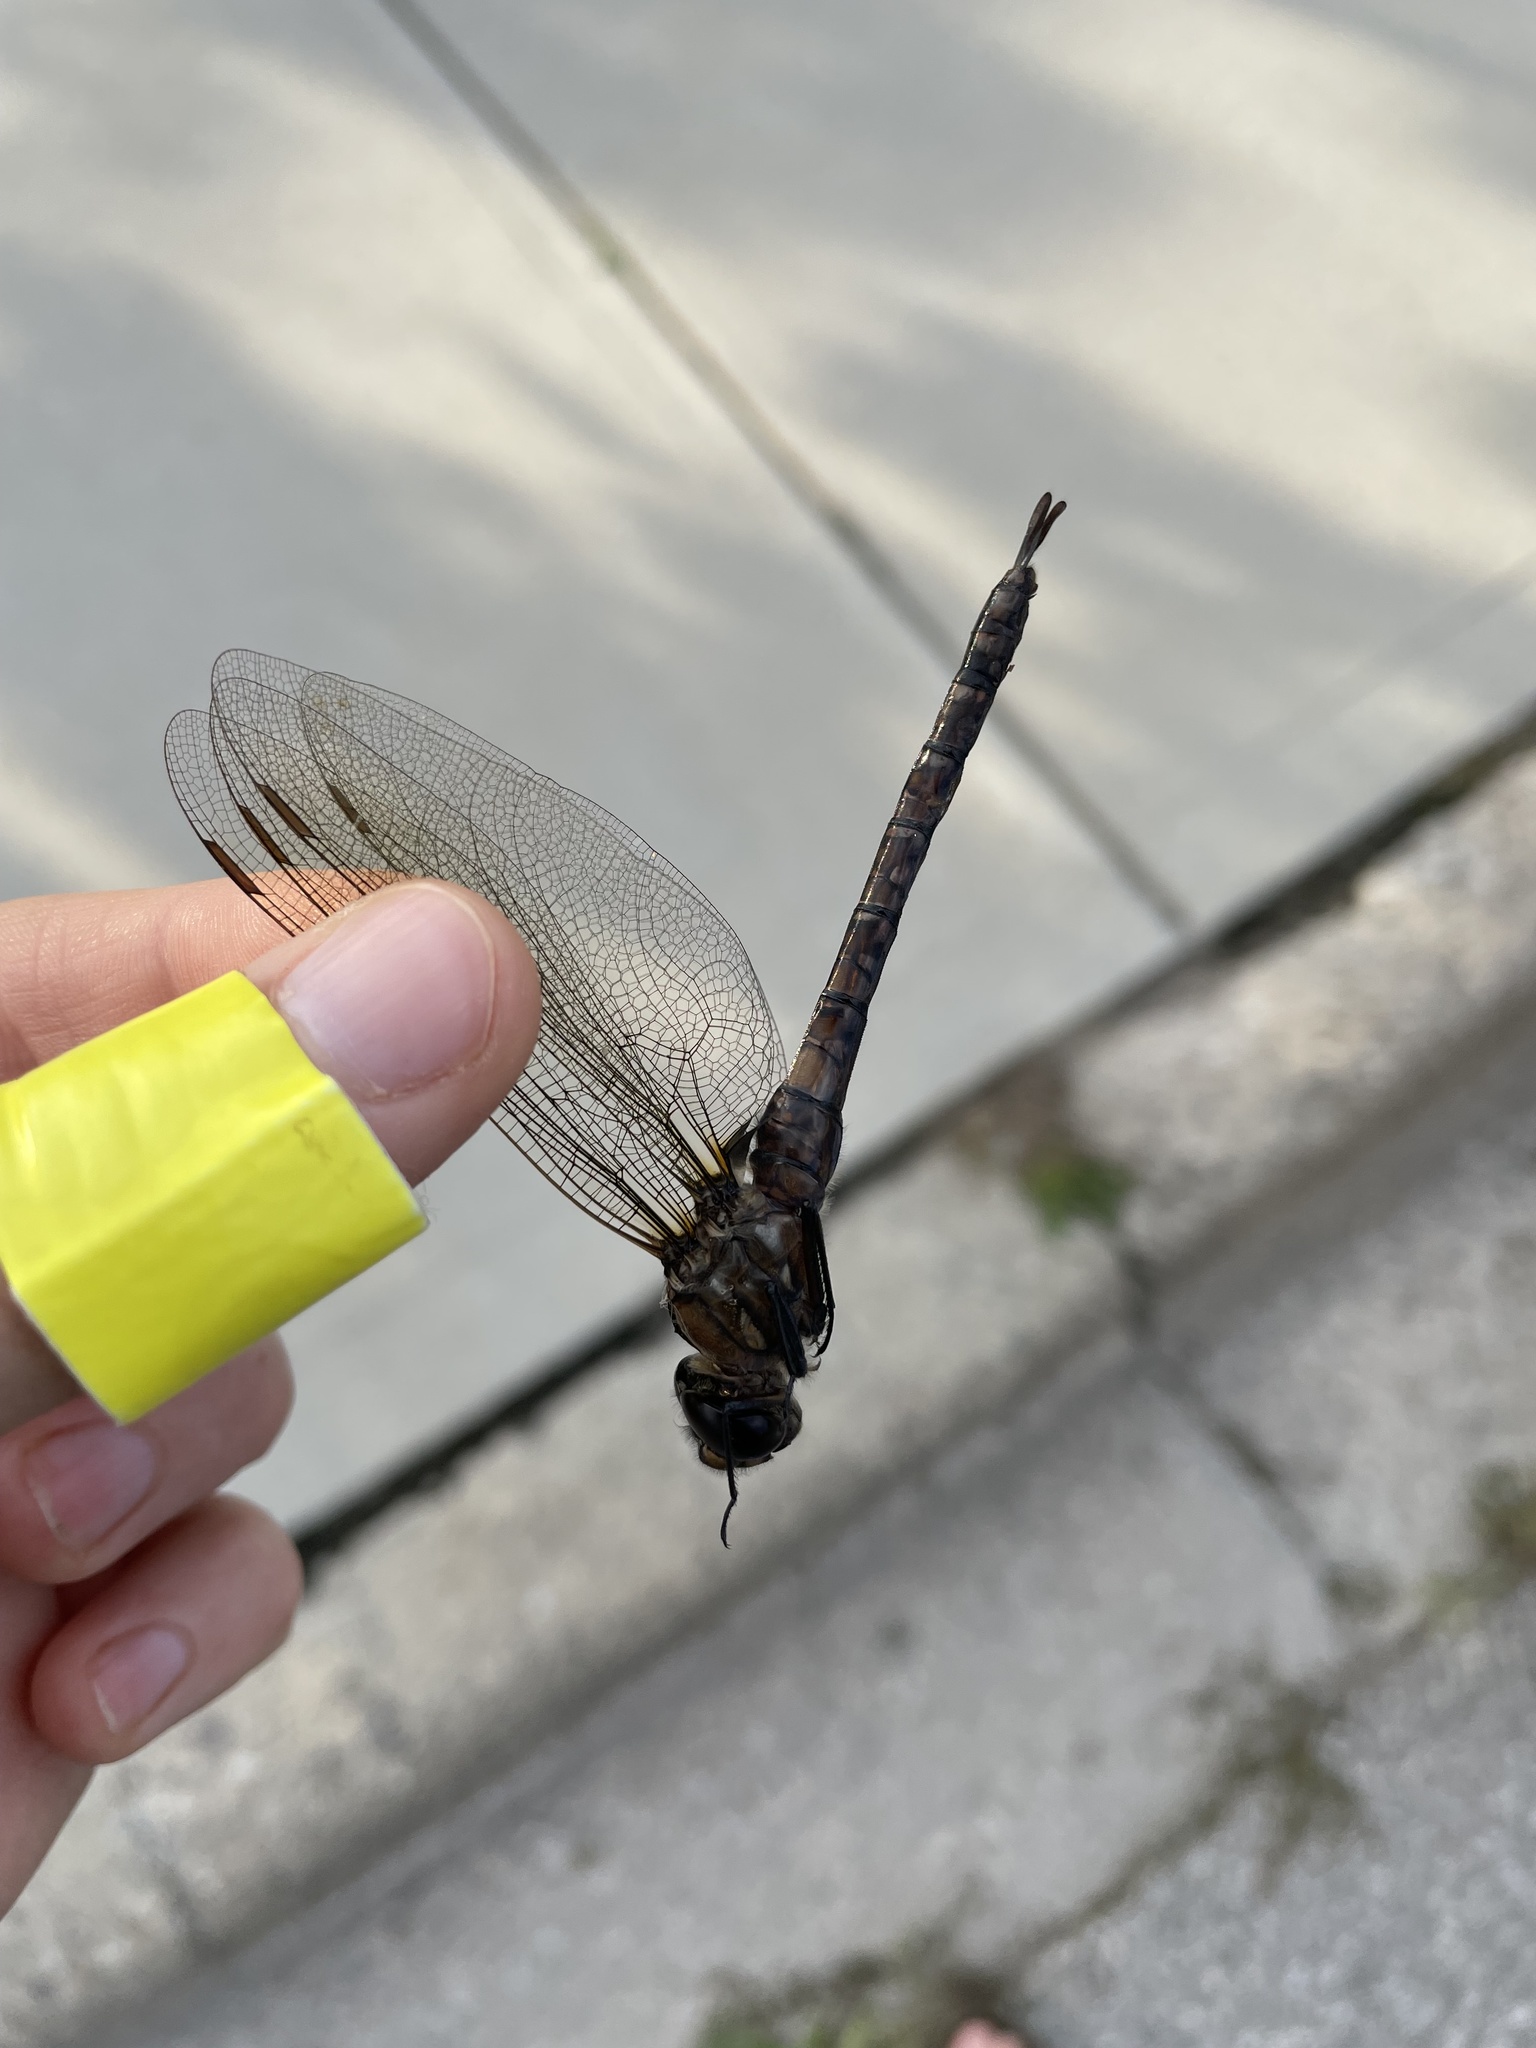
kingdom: Animalia
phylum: Arthropoda
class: Insecta
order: Odonata
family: Aeshnidae
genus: Aeshna
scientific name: Aeshna interrupta
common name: Variable darner
